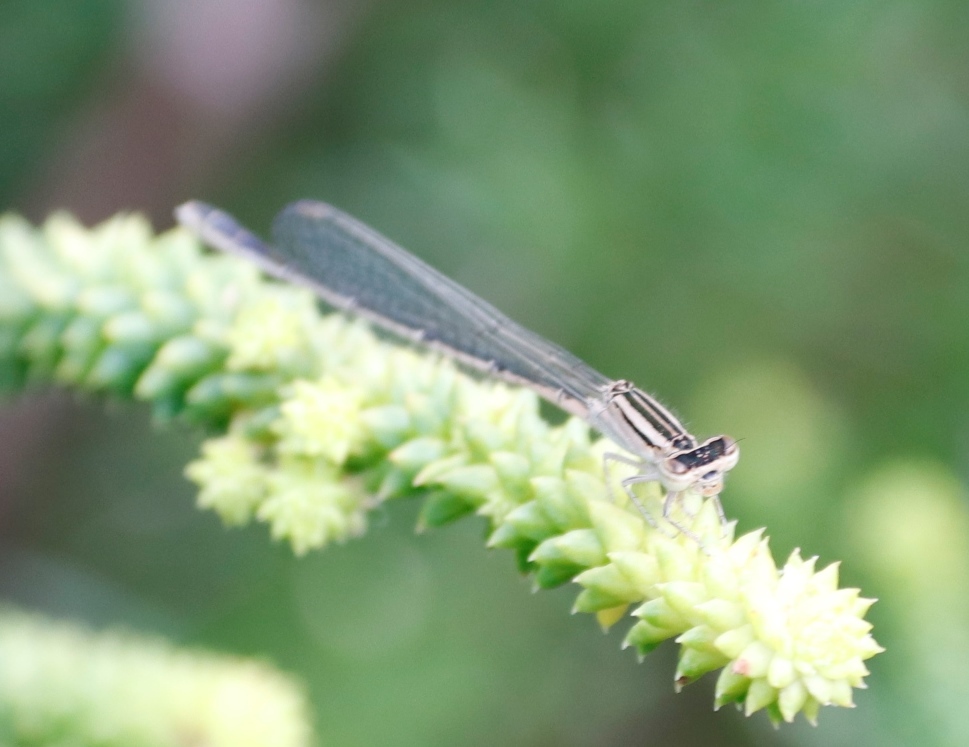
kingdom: Animalia
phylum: Arthropoda
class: Insecta
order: Odonata
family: Coenagrionidae
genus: Africallagma
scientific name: Africallagma glaucum
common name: Swamp bluet
